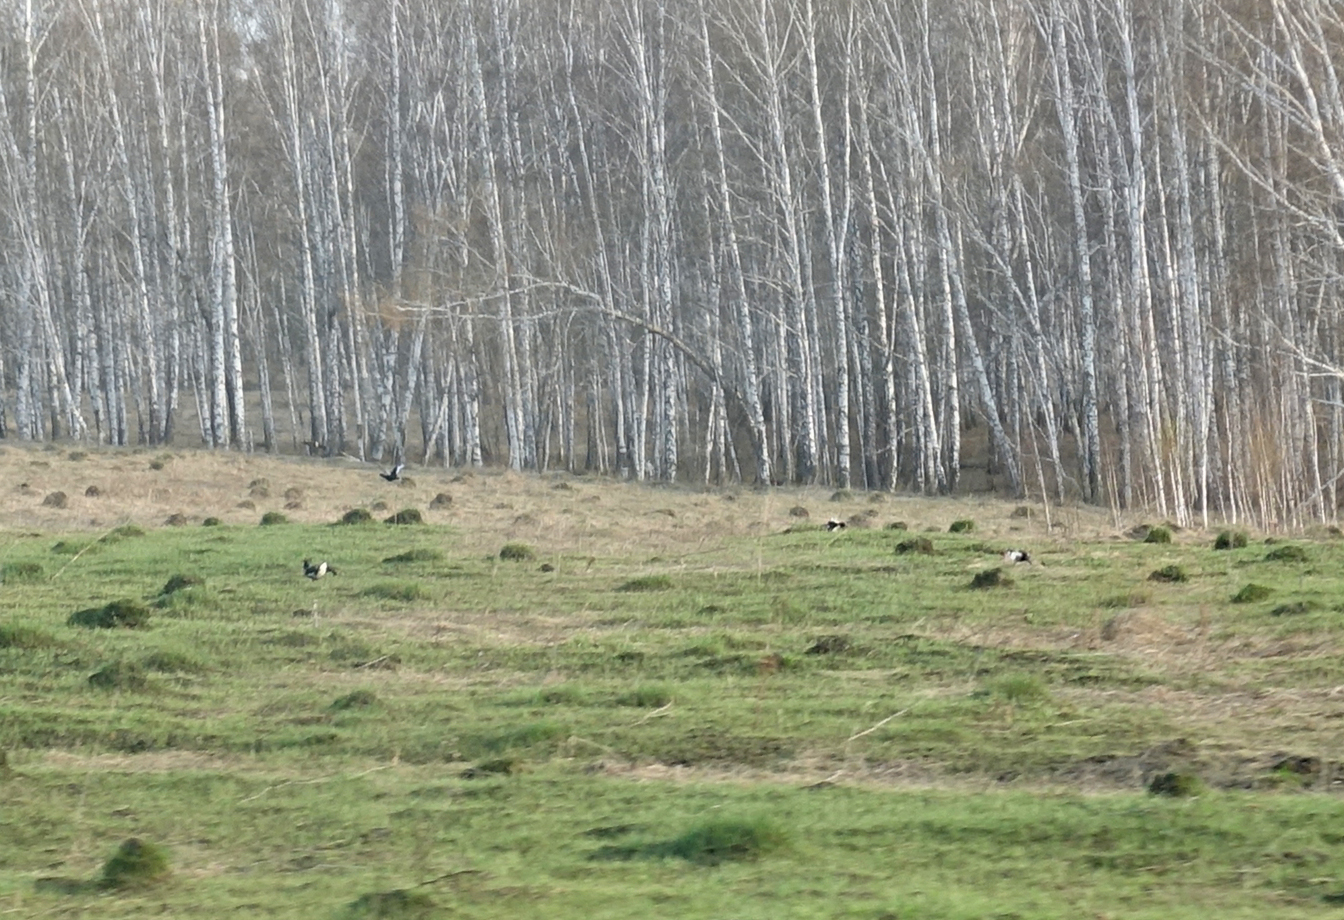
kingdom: Animalia
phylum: Chordata
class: Aves
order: Galliformes
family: Phasianidae
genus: Lyrurus
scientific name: Lyrurus tetrix
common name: Black grouse
